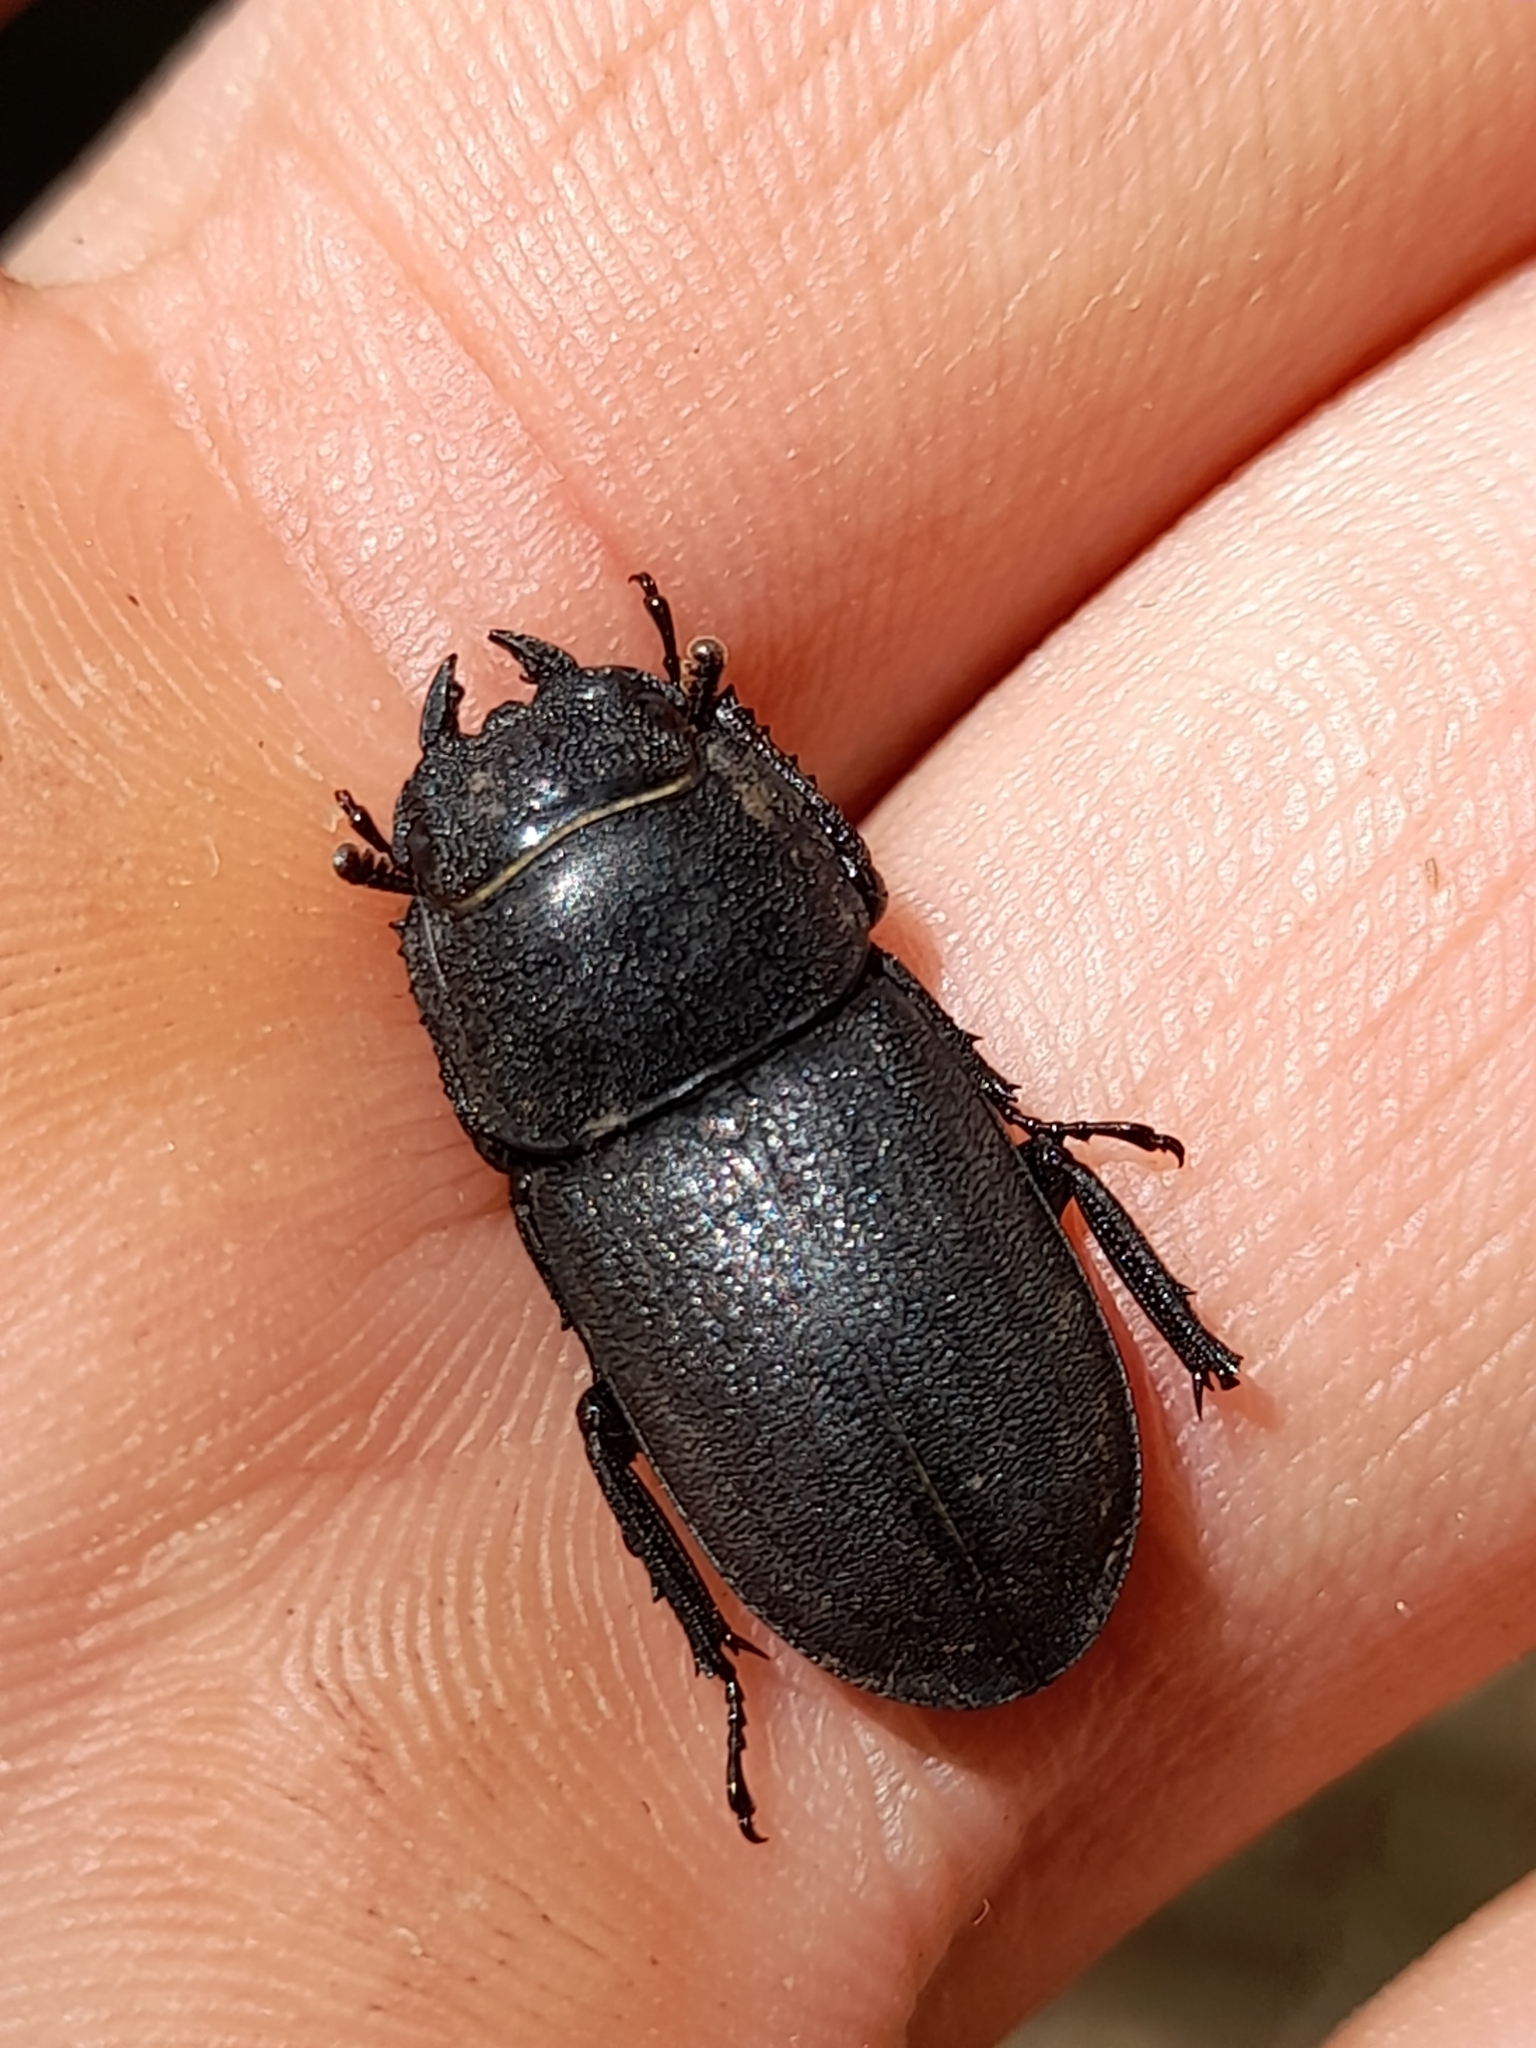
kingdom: Animalia
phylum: Arthropoda
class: Insecta
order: Coleoptera
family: Lucanidae
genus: Dorcus
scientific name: Dorcus parallelipipedus
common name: Lesser stag beetle
